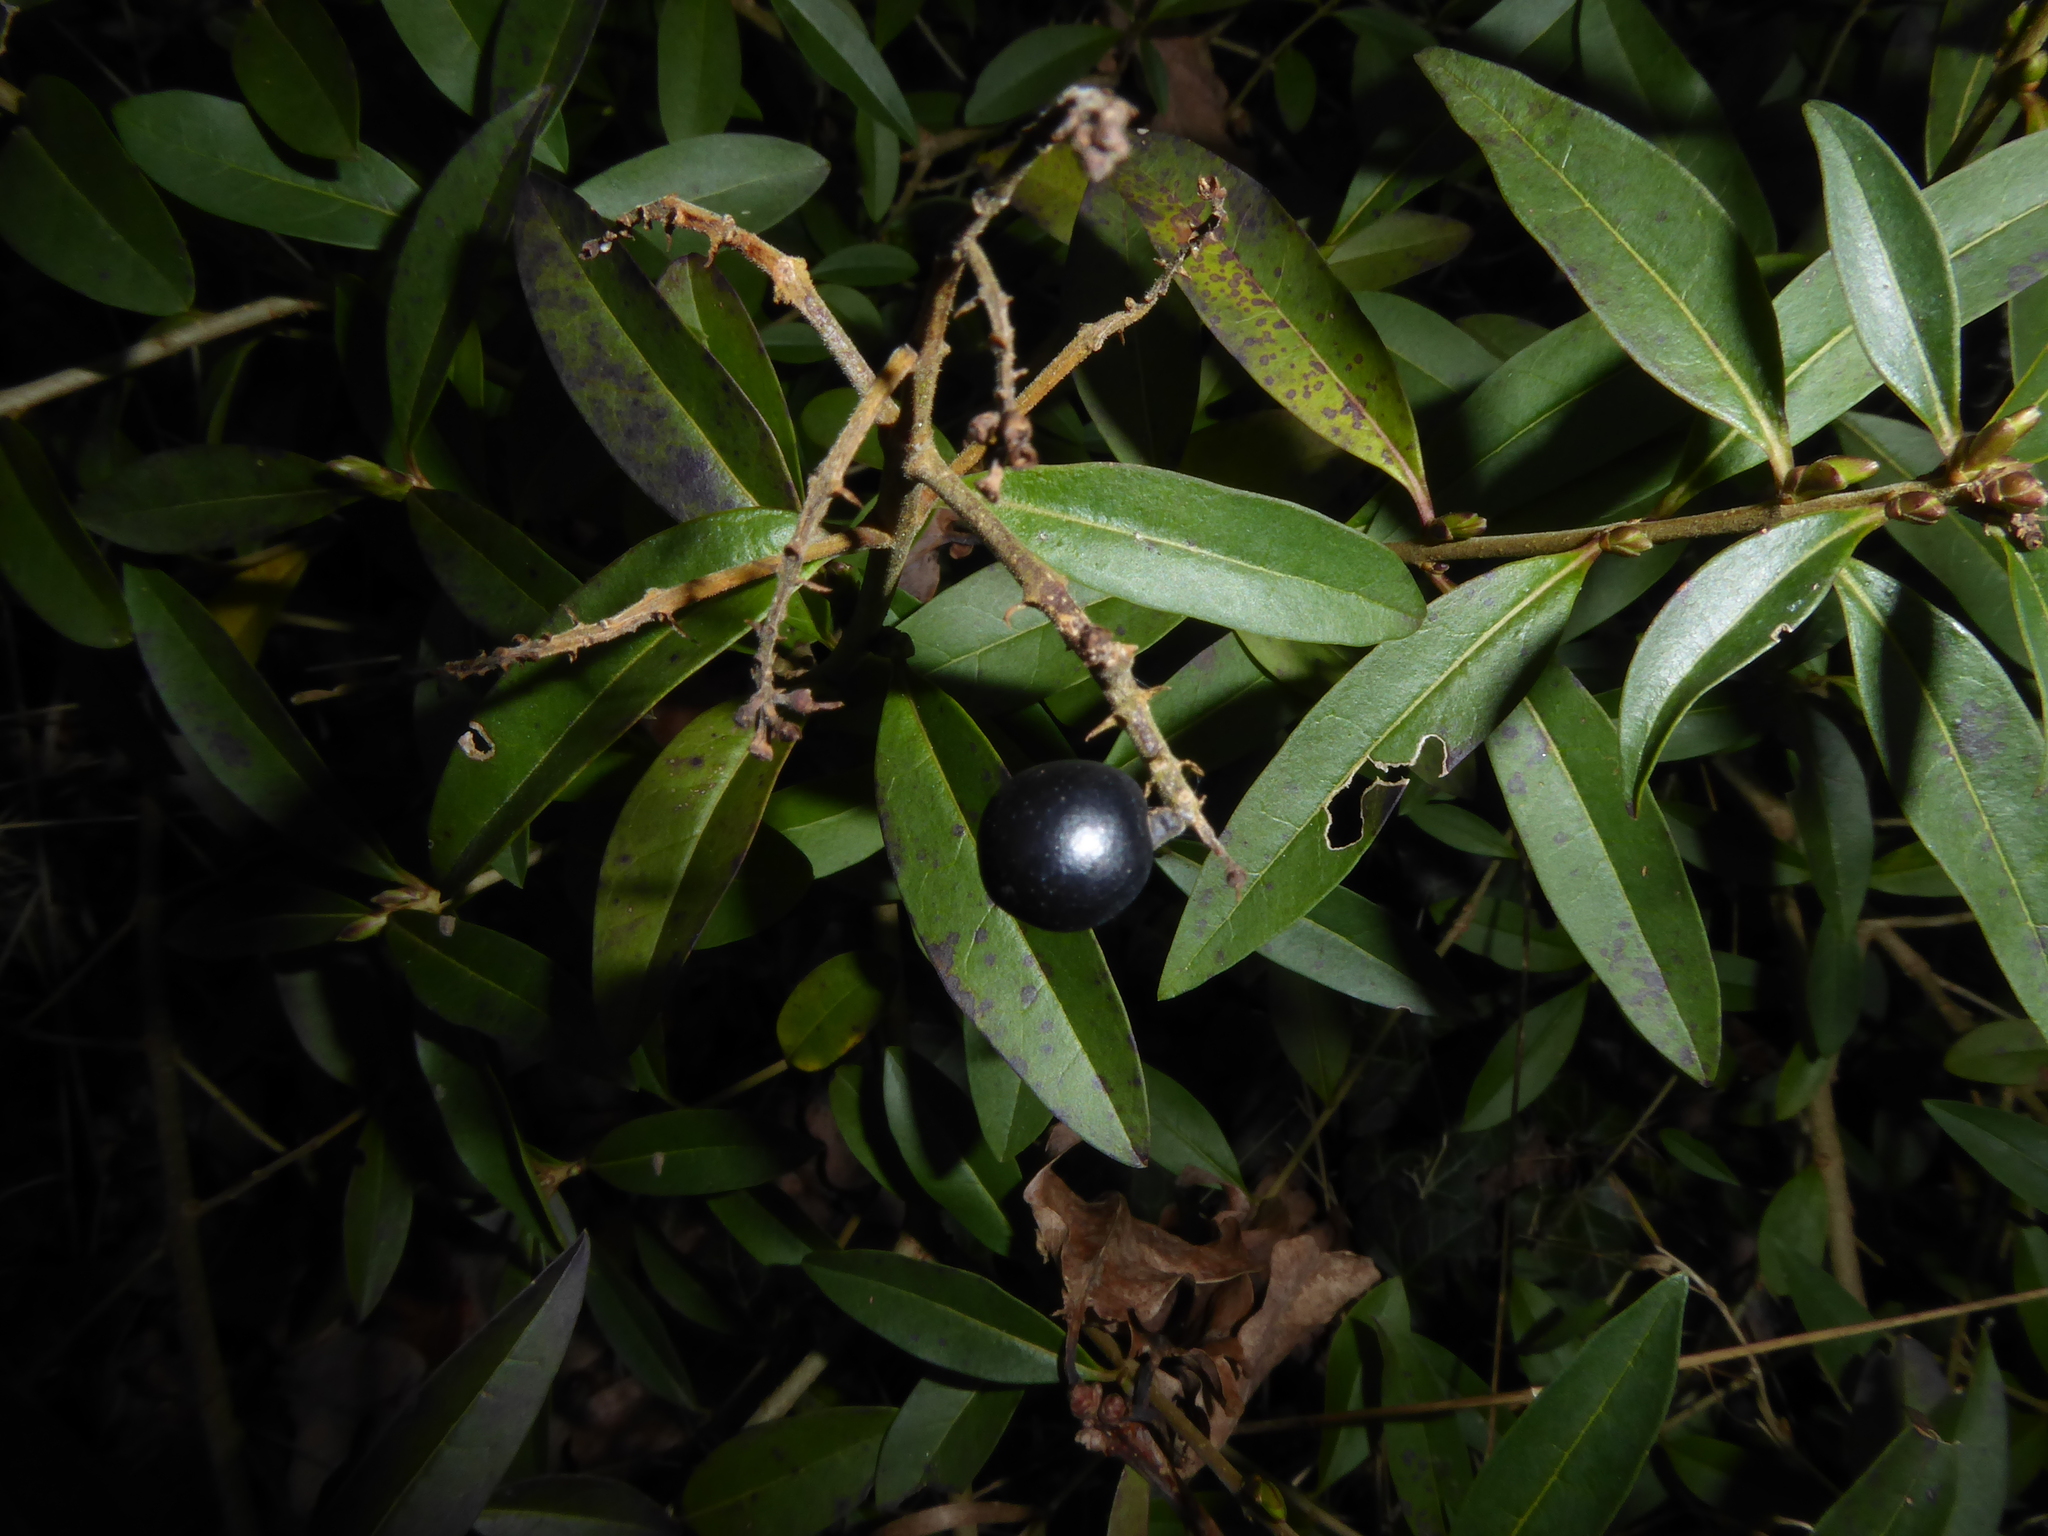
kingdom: Plantae
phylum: Tracheophyta
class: Magnoliopsida
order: Lamiales
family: Oleaceae
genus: Ligustrum
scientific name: Ligustrum vulgare
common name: Wild privet
